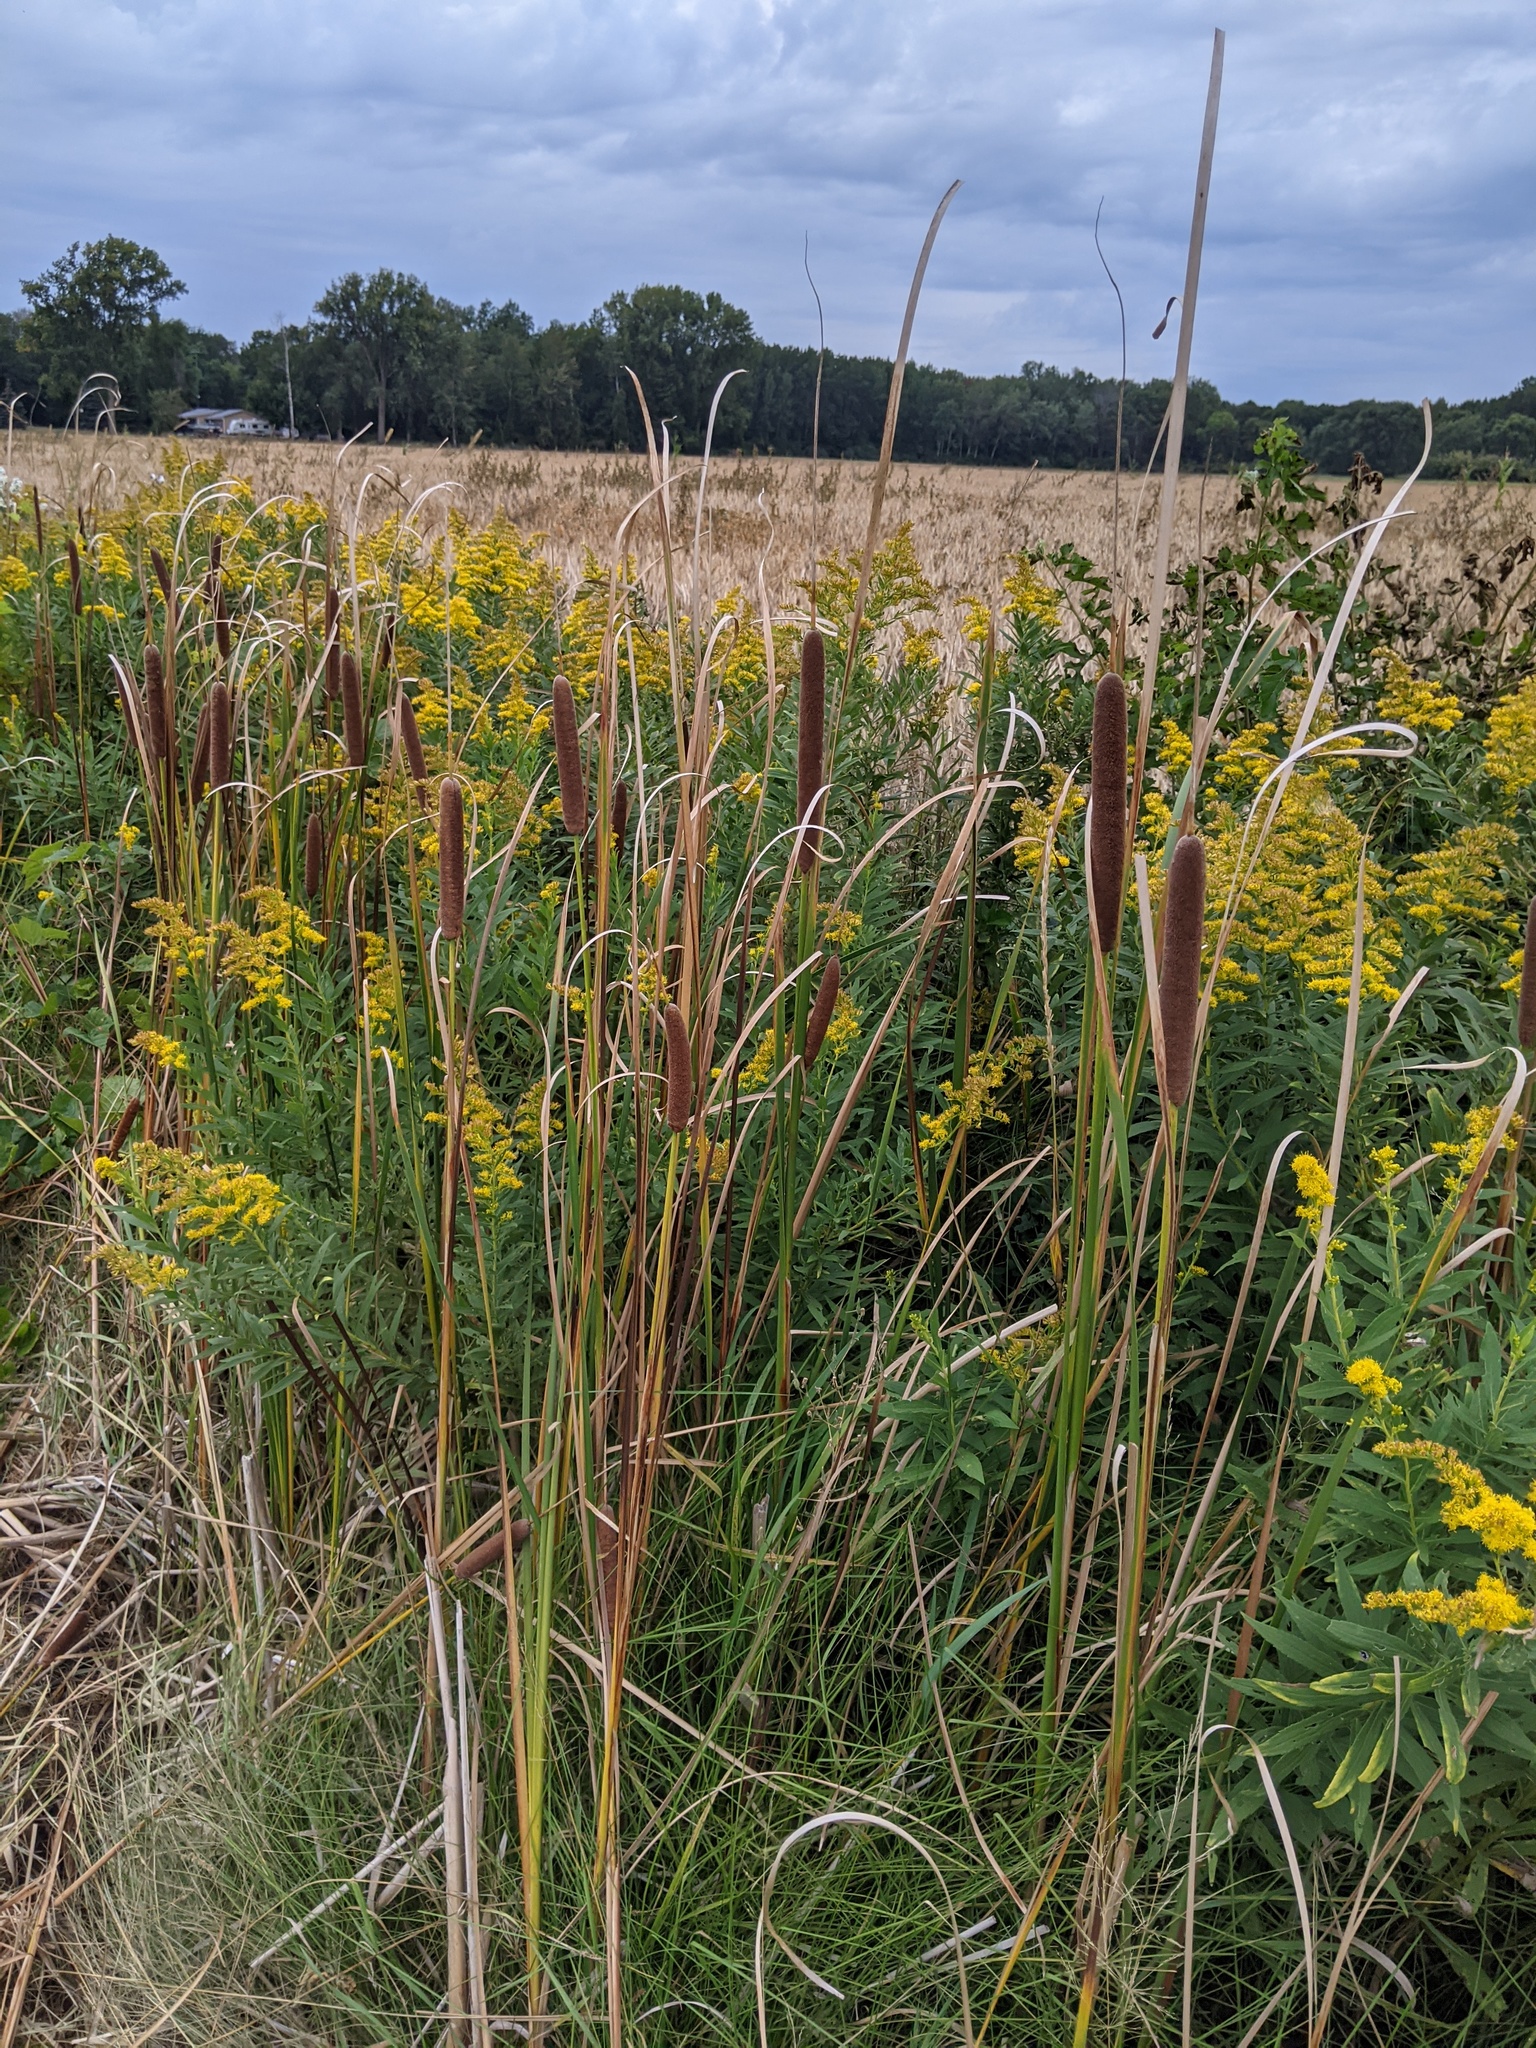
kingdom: Plantae
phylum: Tracheophyta
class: Liliopsida
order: Poales
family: Typhaceae
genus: Typha
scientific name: Typha angustifolia
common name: Lesser bulrush
